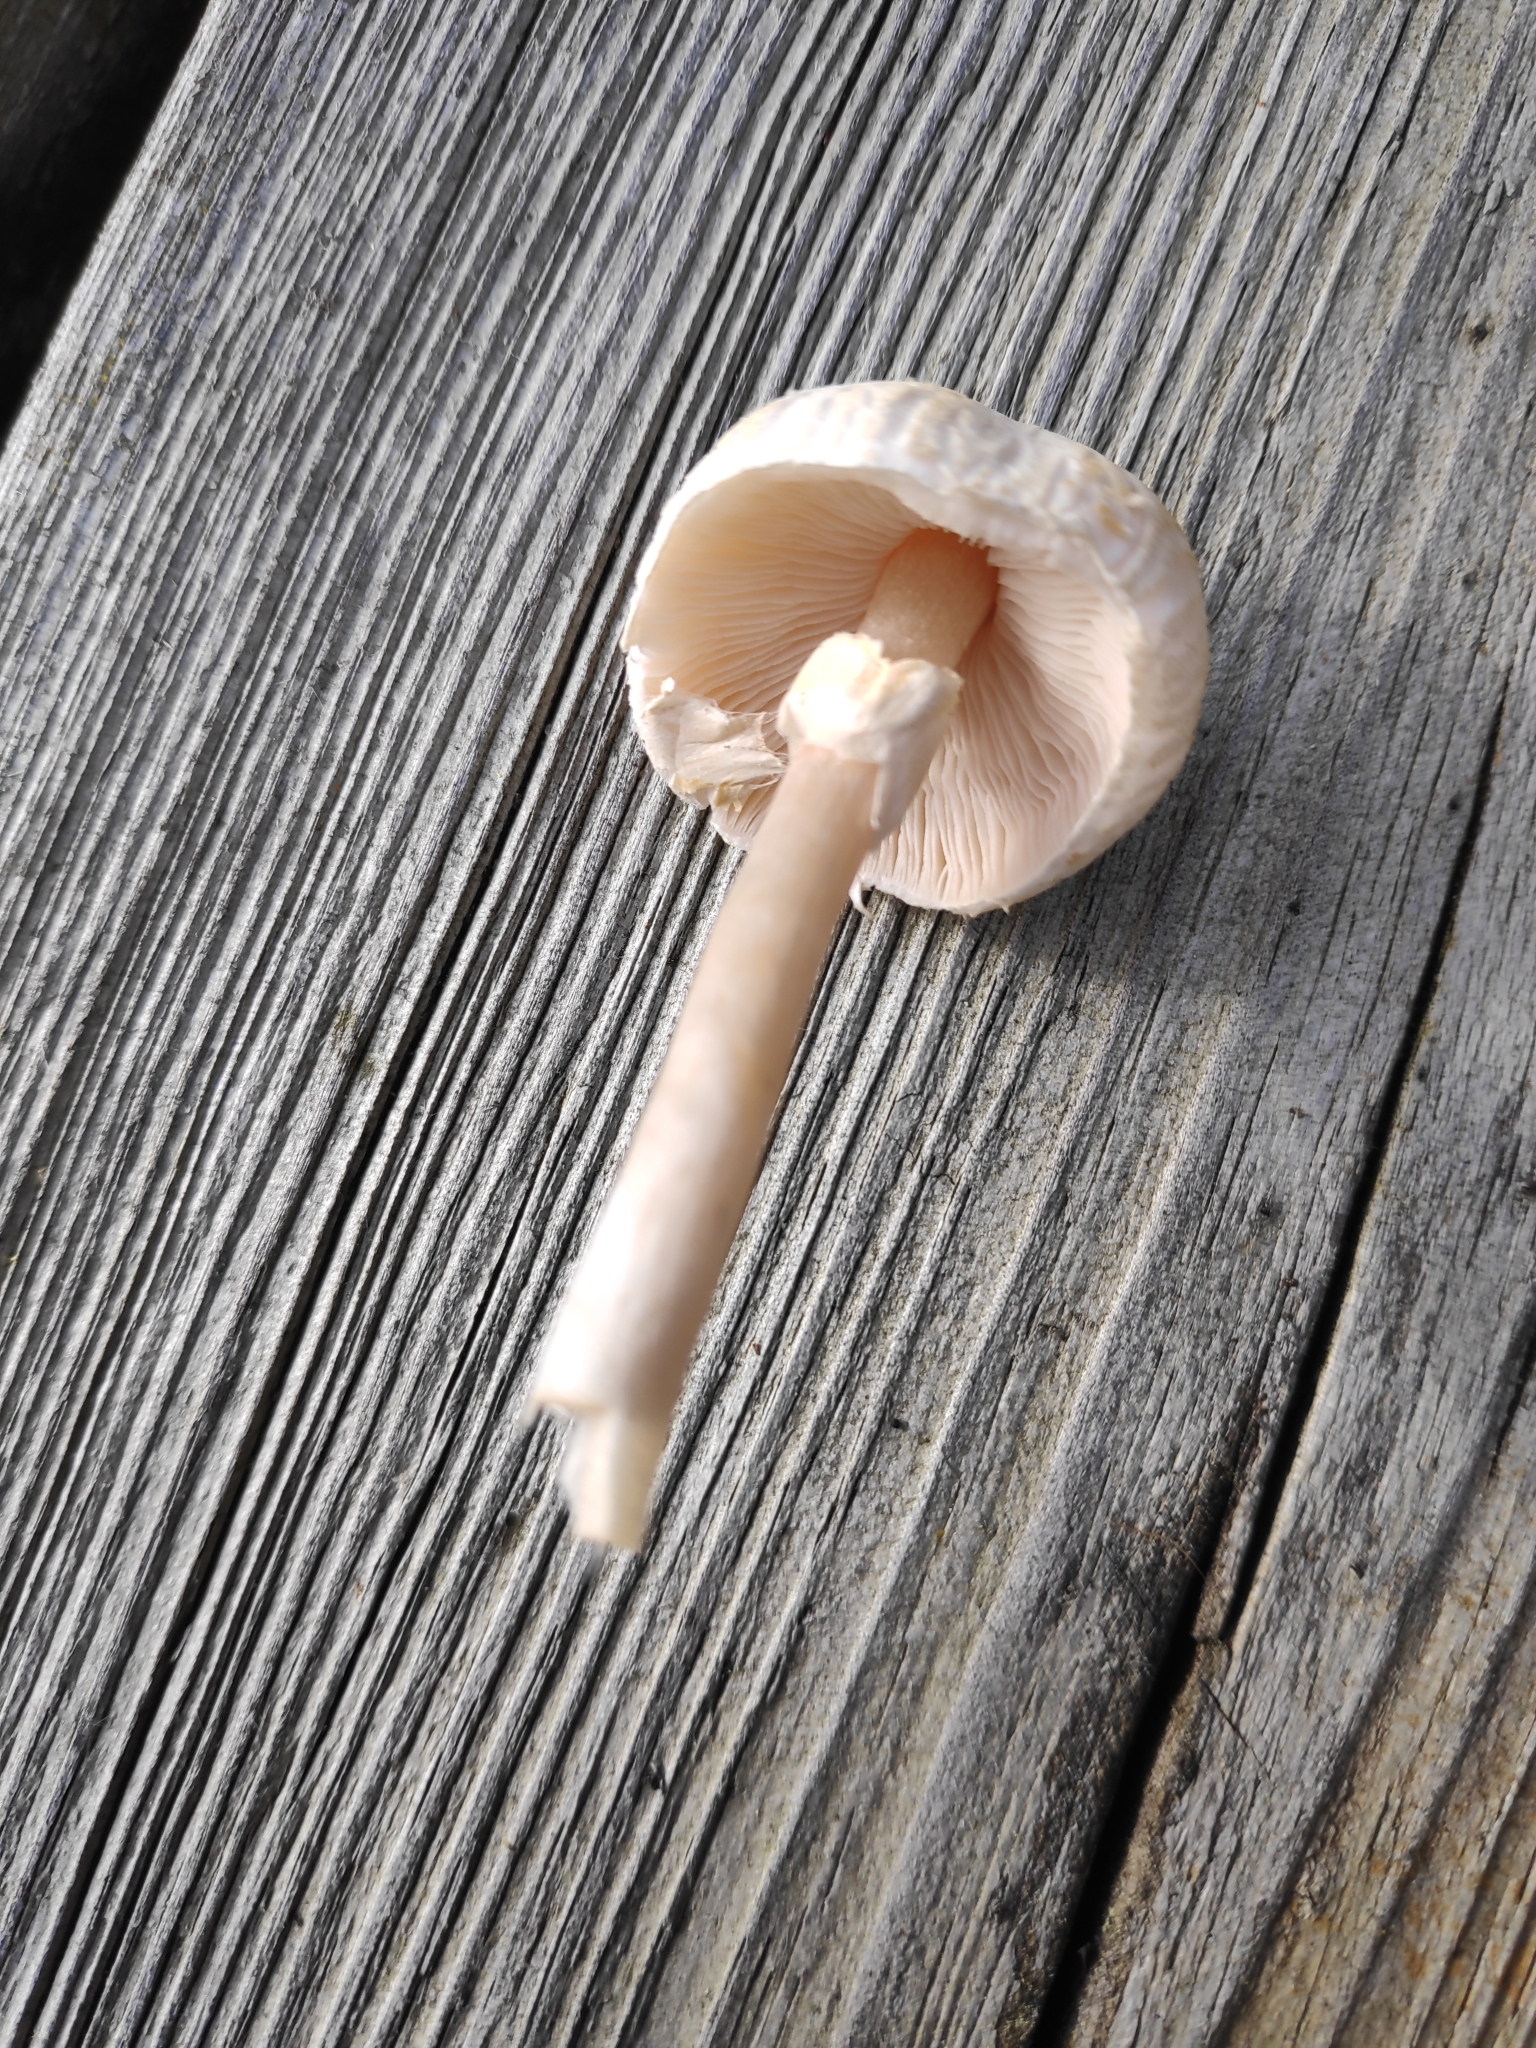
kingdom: Fungi
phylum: Basidiomycota
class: Agaricomycetes
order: Agaricales
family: Agaricaceae
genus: Lepiota
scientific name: Lepiota cristata
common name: Stinking dapperling
